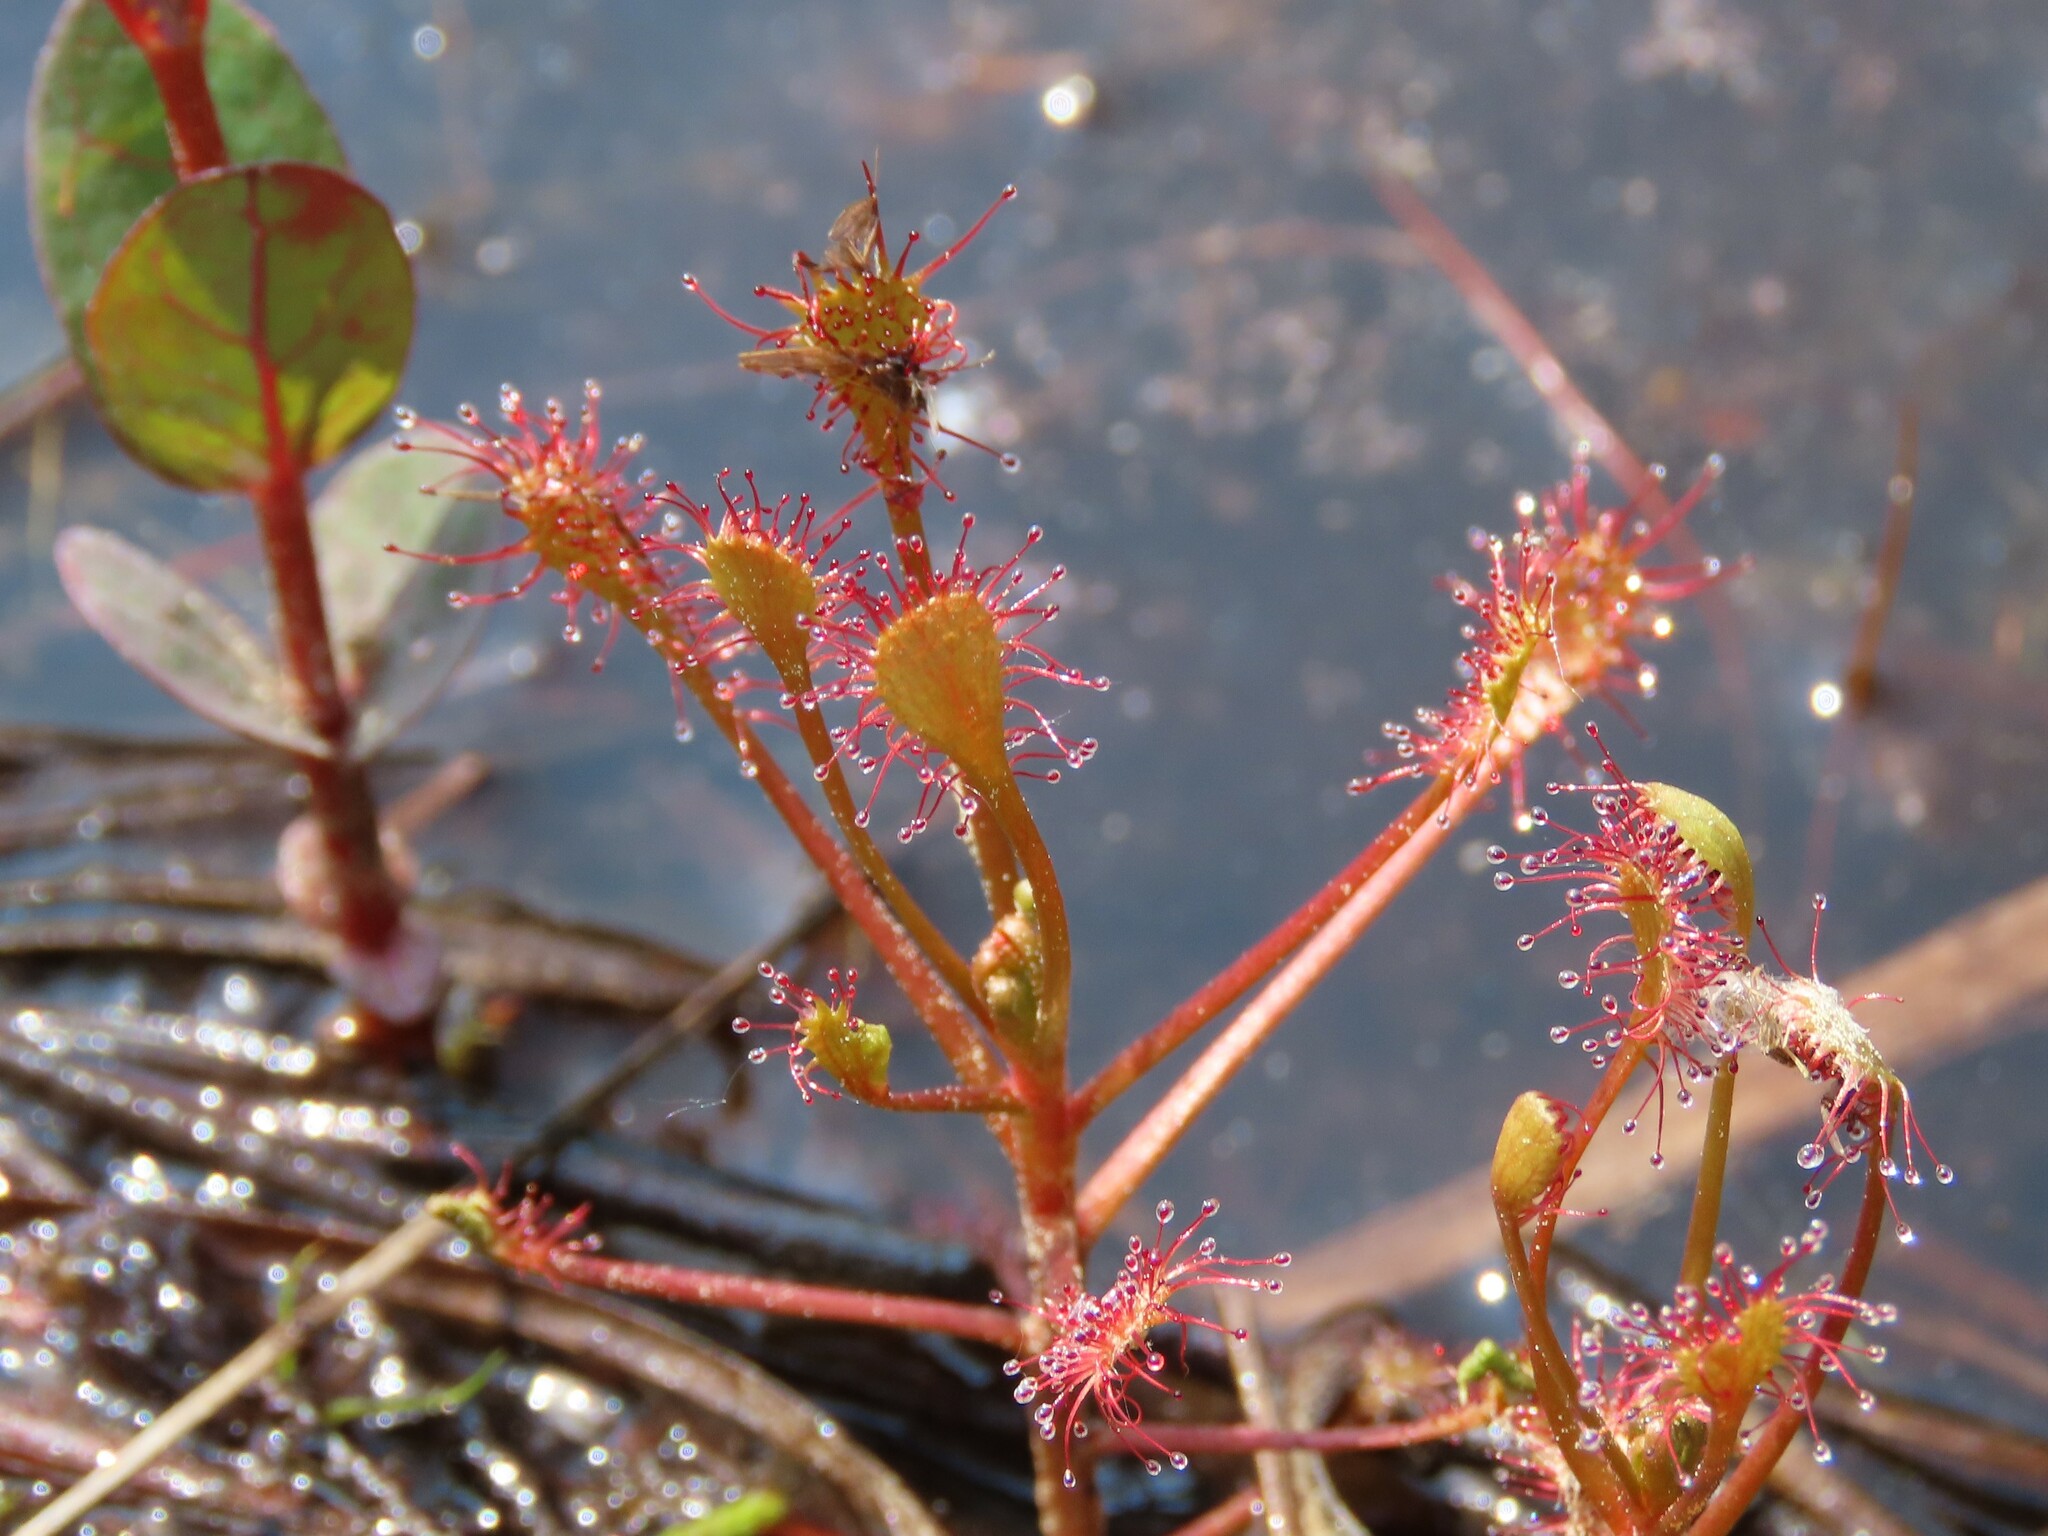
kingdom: Plantae
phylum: Tracheophyta
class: Magnoliopsida
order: Caryophyllales
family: Droseraceae
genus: Drosera
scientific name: Drosera intermedia
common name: Oblong-leaved sundew
